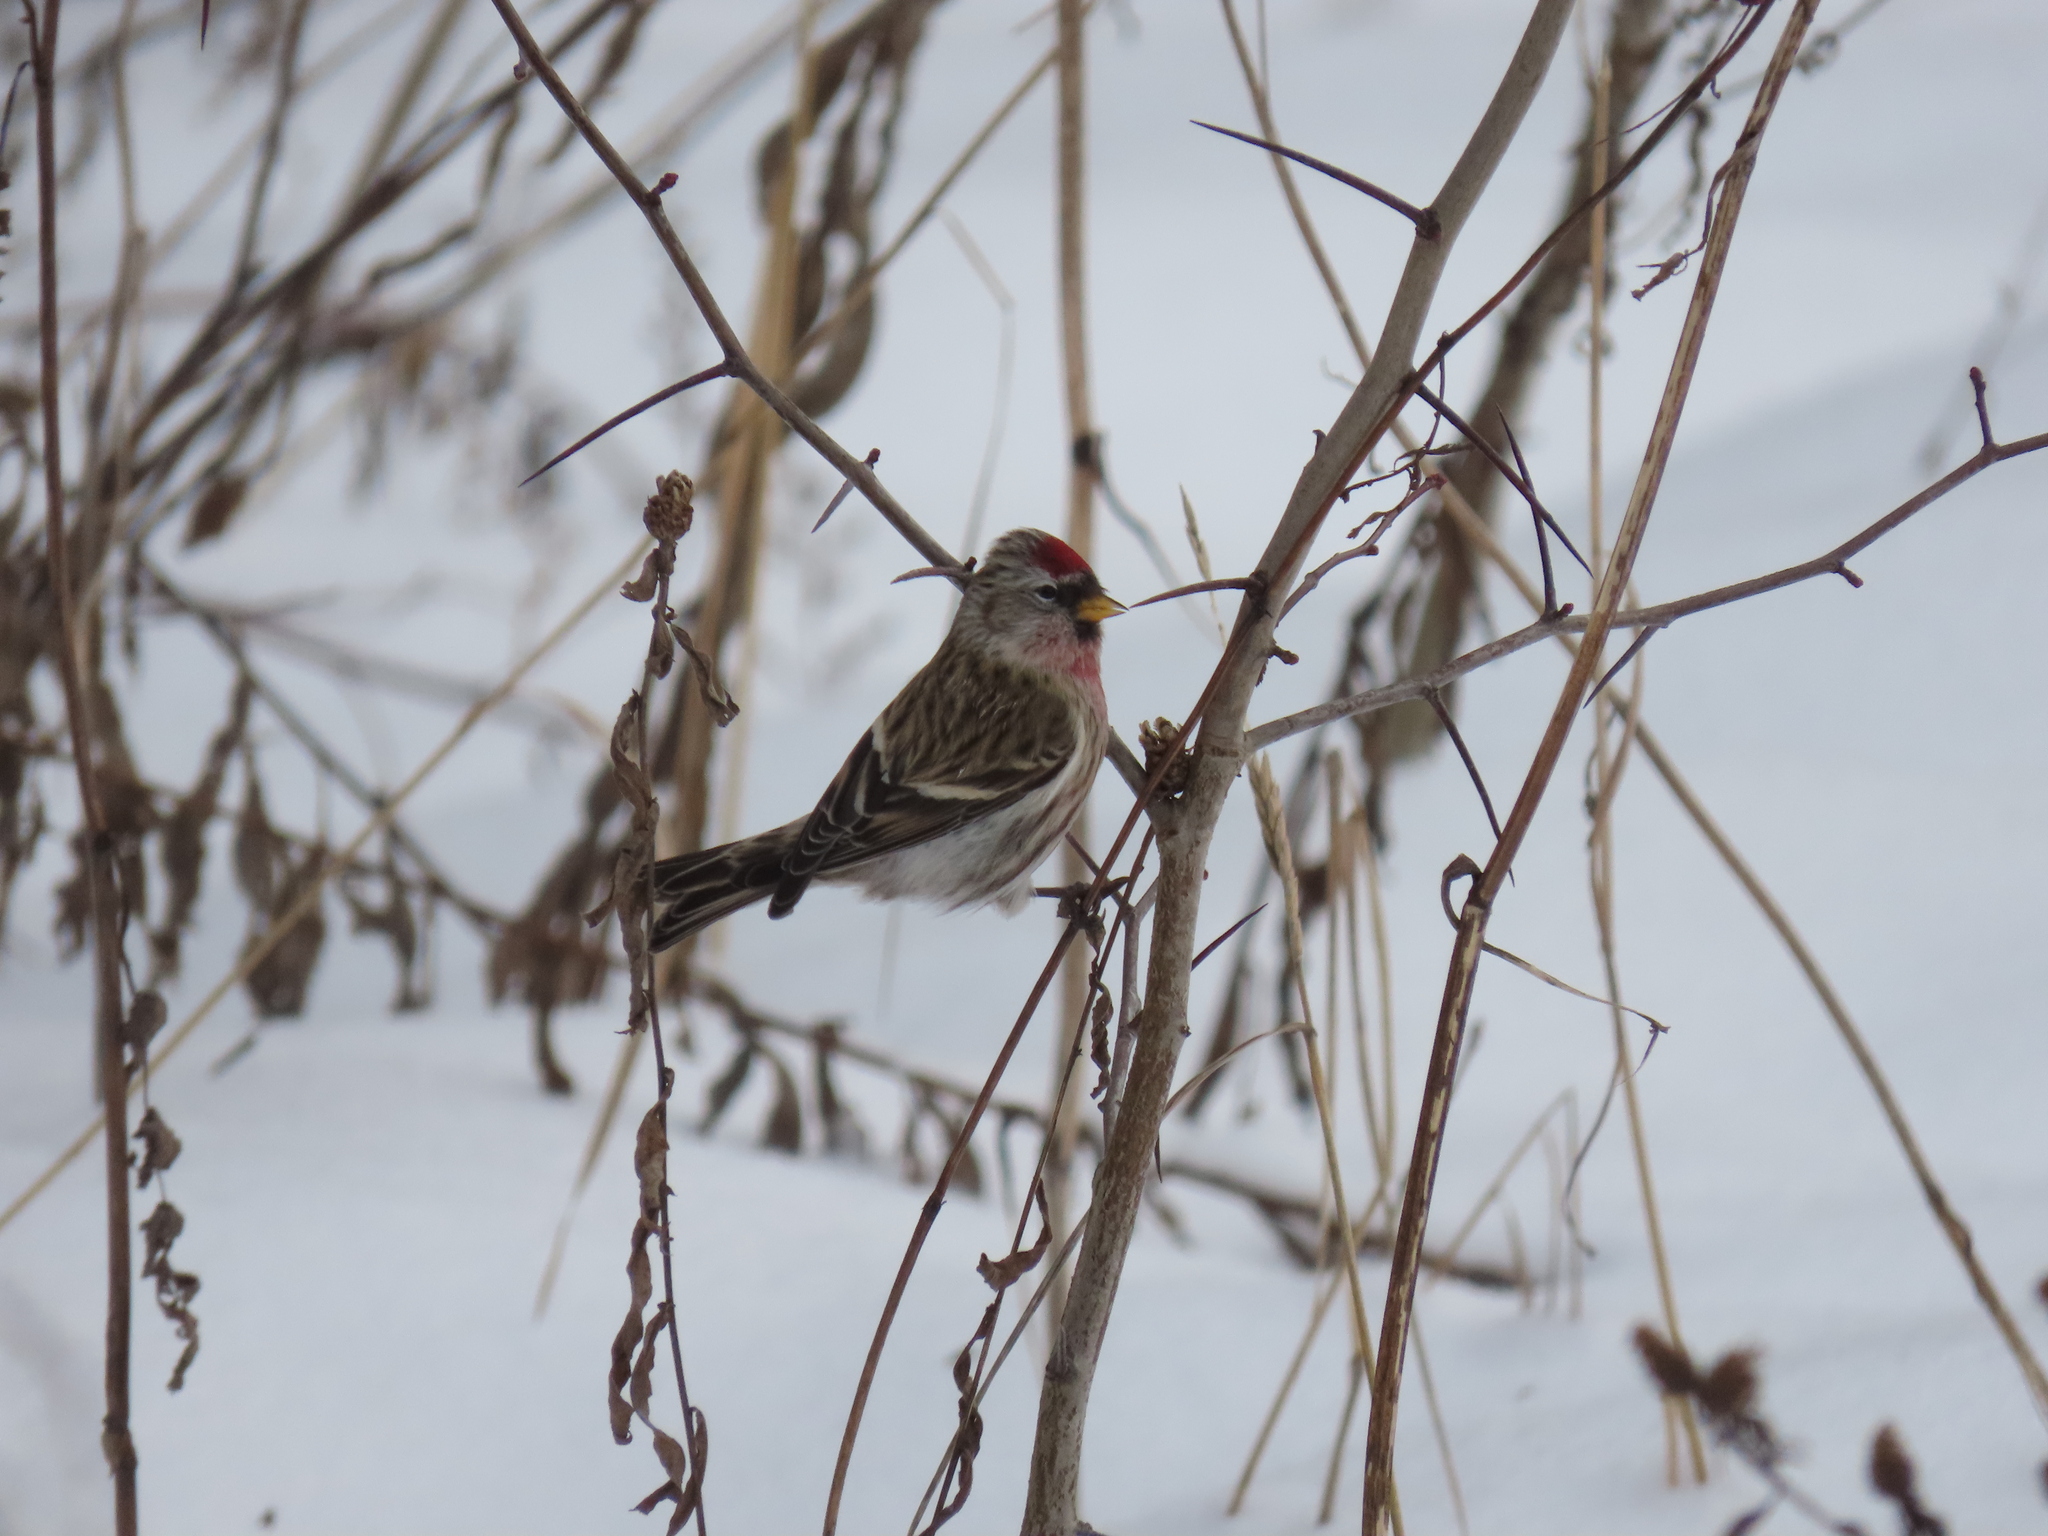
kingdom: Animalia
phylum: Chordata
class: Aves
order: Passeriformes
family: Fringillidae
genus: Acanthis
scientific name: Acanthis flammea
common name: Common redpoll
